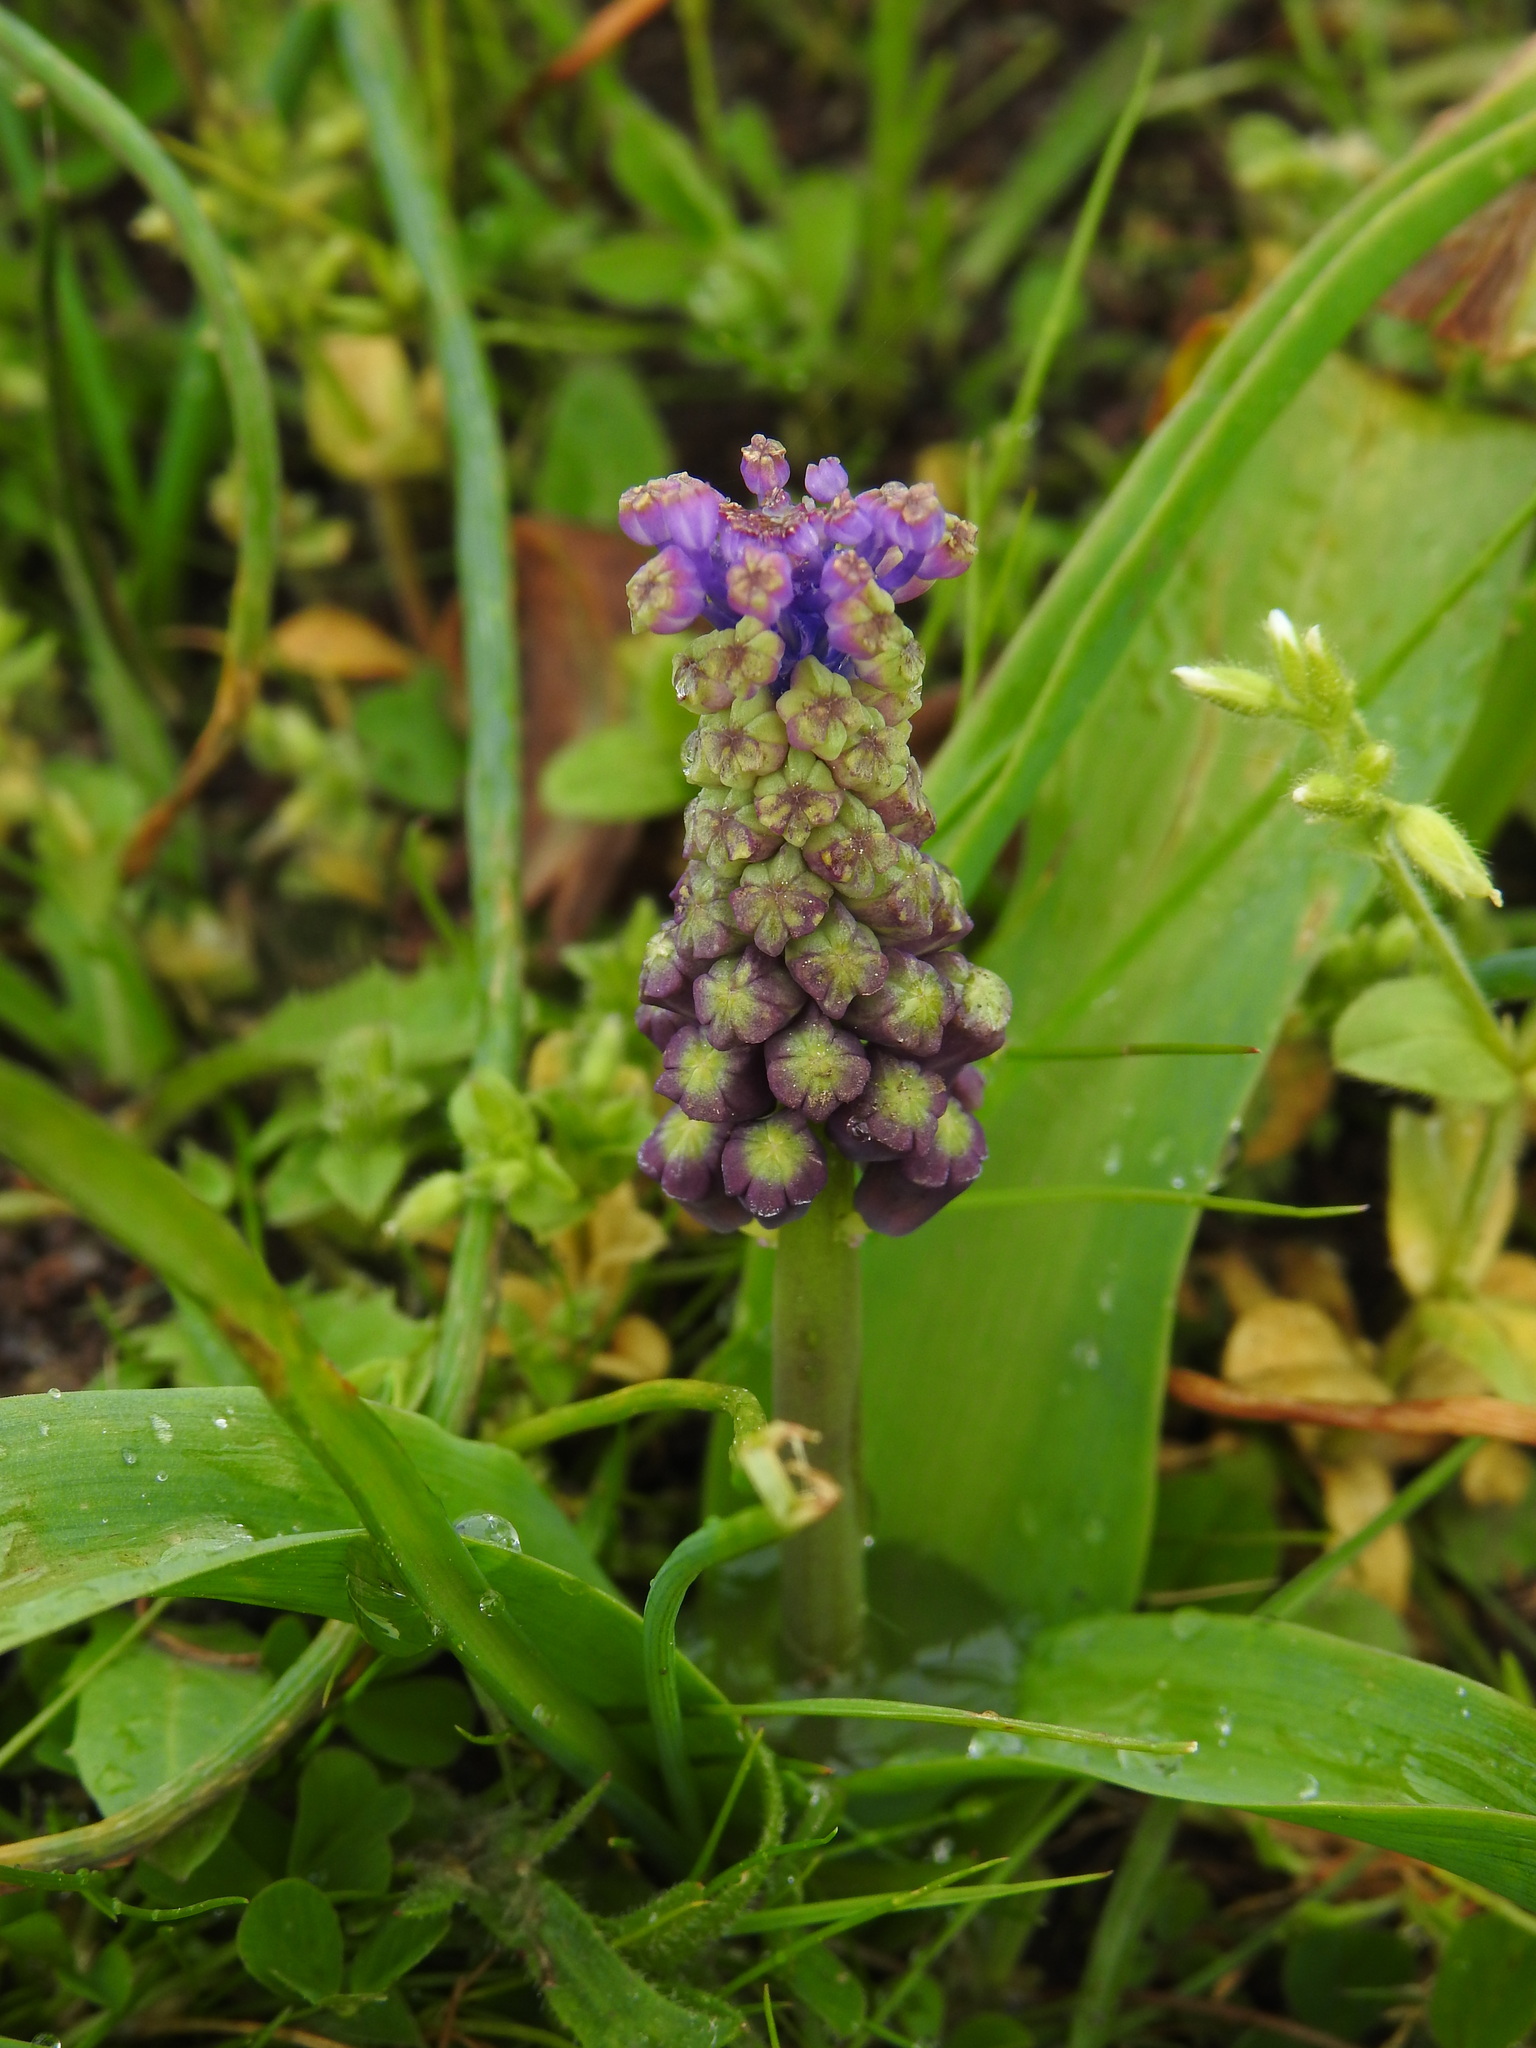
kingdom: Plantae
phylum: Tracheophyta
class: Liliopsida
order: Asparagales
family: Asparagaceae
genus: Muscari
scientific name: Muscari comosum
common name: Tassel hyacinth
